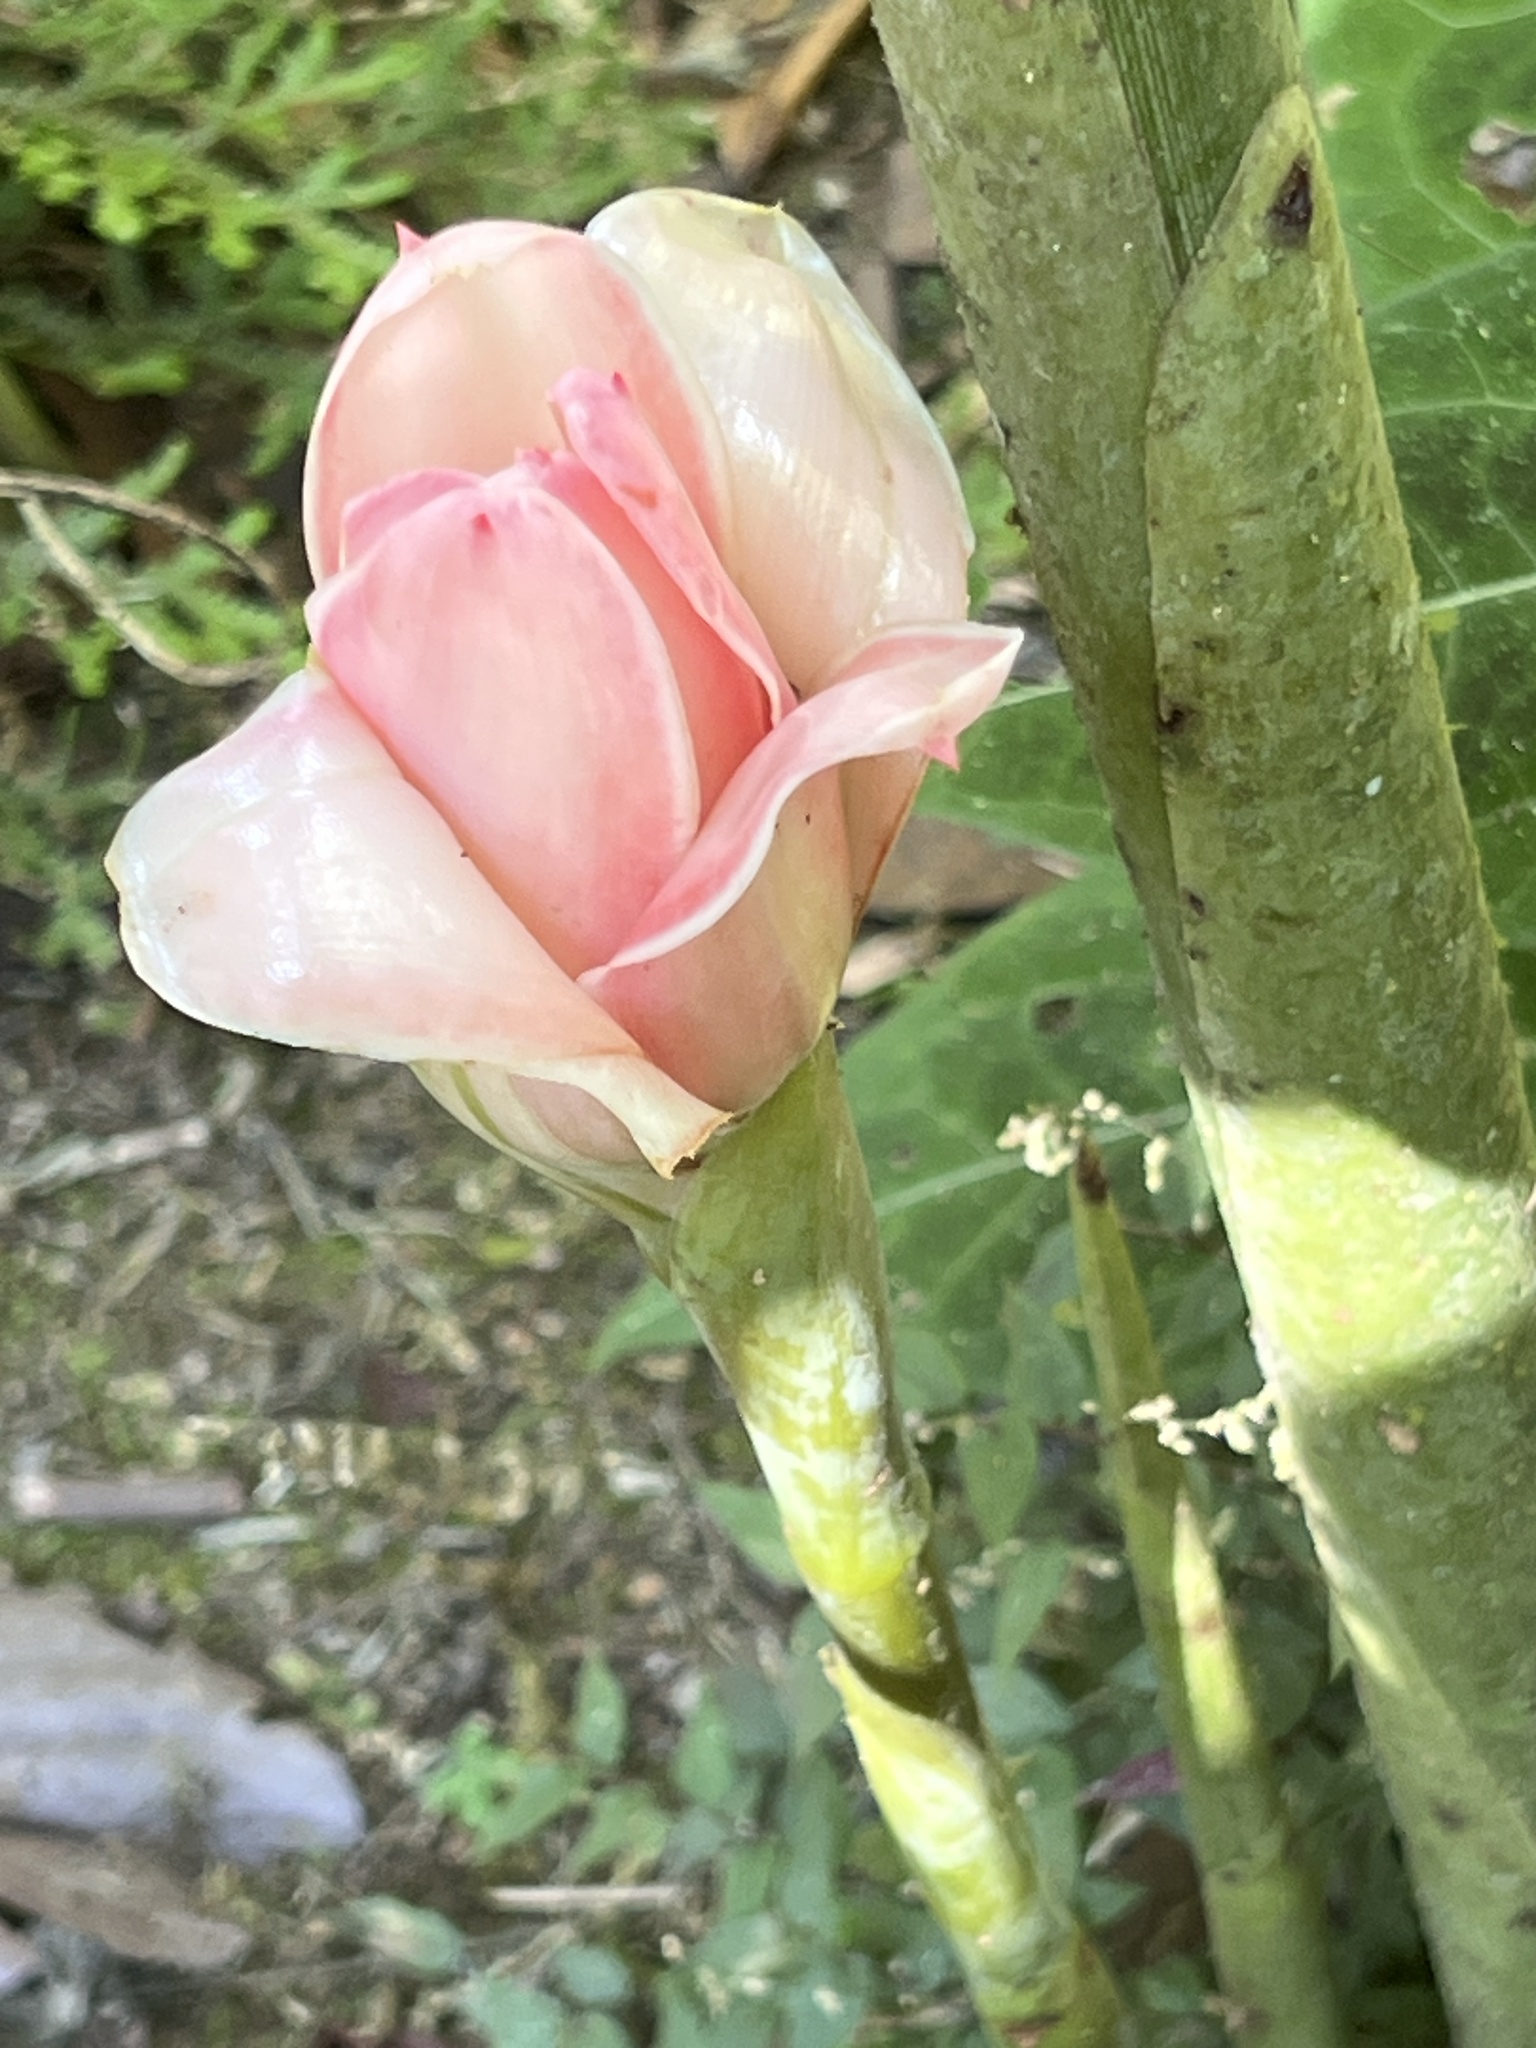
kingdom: Plantae
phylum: Tracheophyta
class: Liliopsida
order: Zingiberales
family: Zingiberaceae
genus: Etlingera
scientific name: Etlingera elatior
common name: Philippine waxflower
